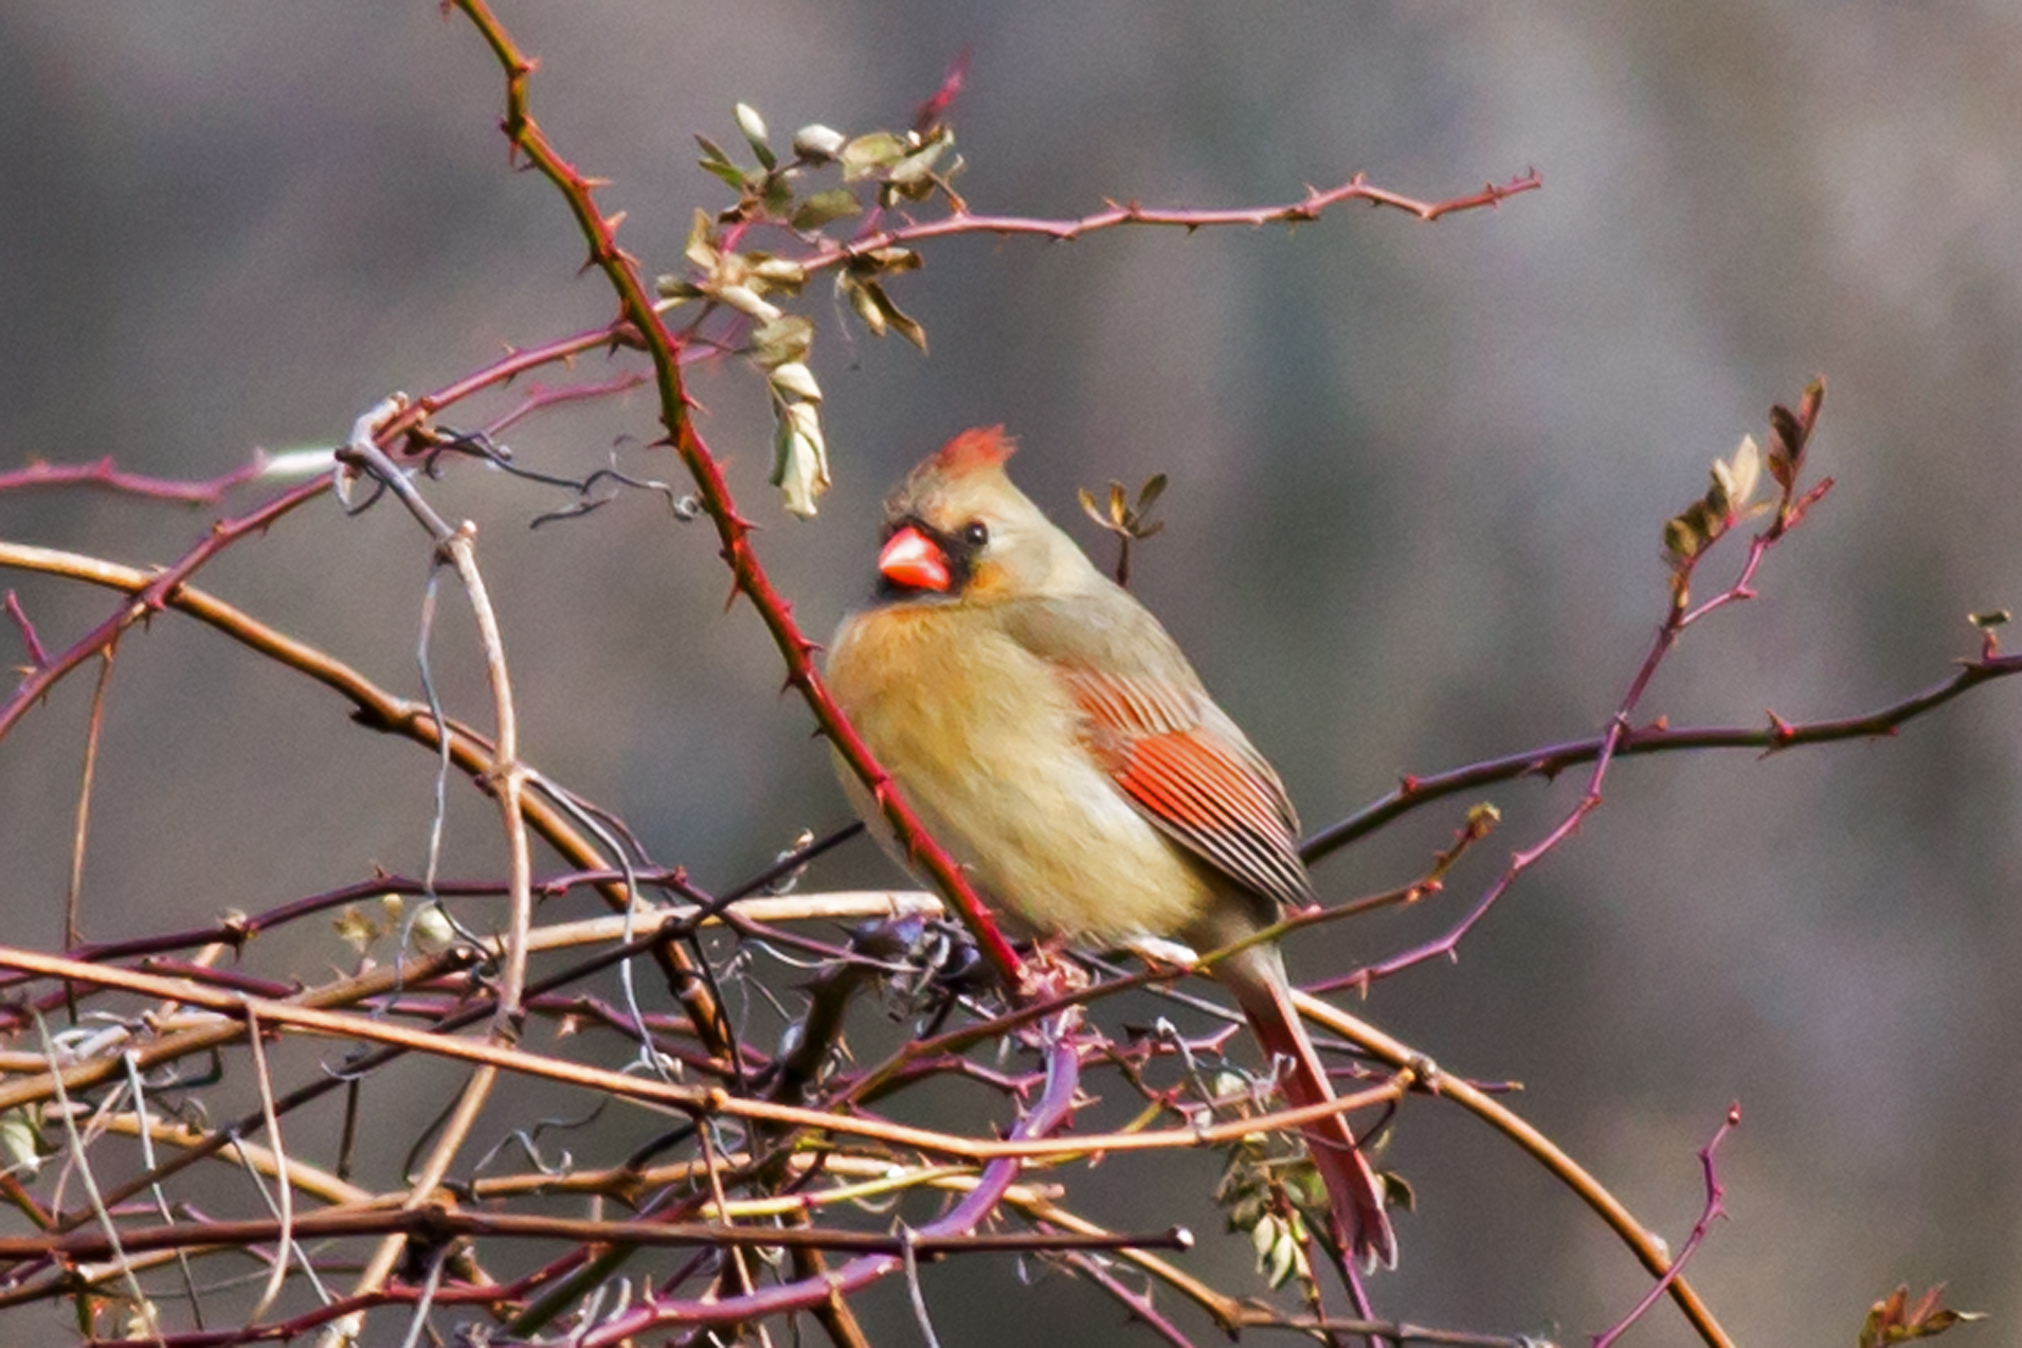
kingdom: Animalia
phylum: Chordata
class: Aves
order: Passeriformes
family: Cardinalidae
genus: Cardinalis
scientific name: Cardinalis cardinalis
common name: Northern cardinal
